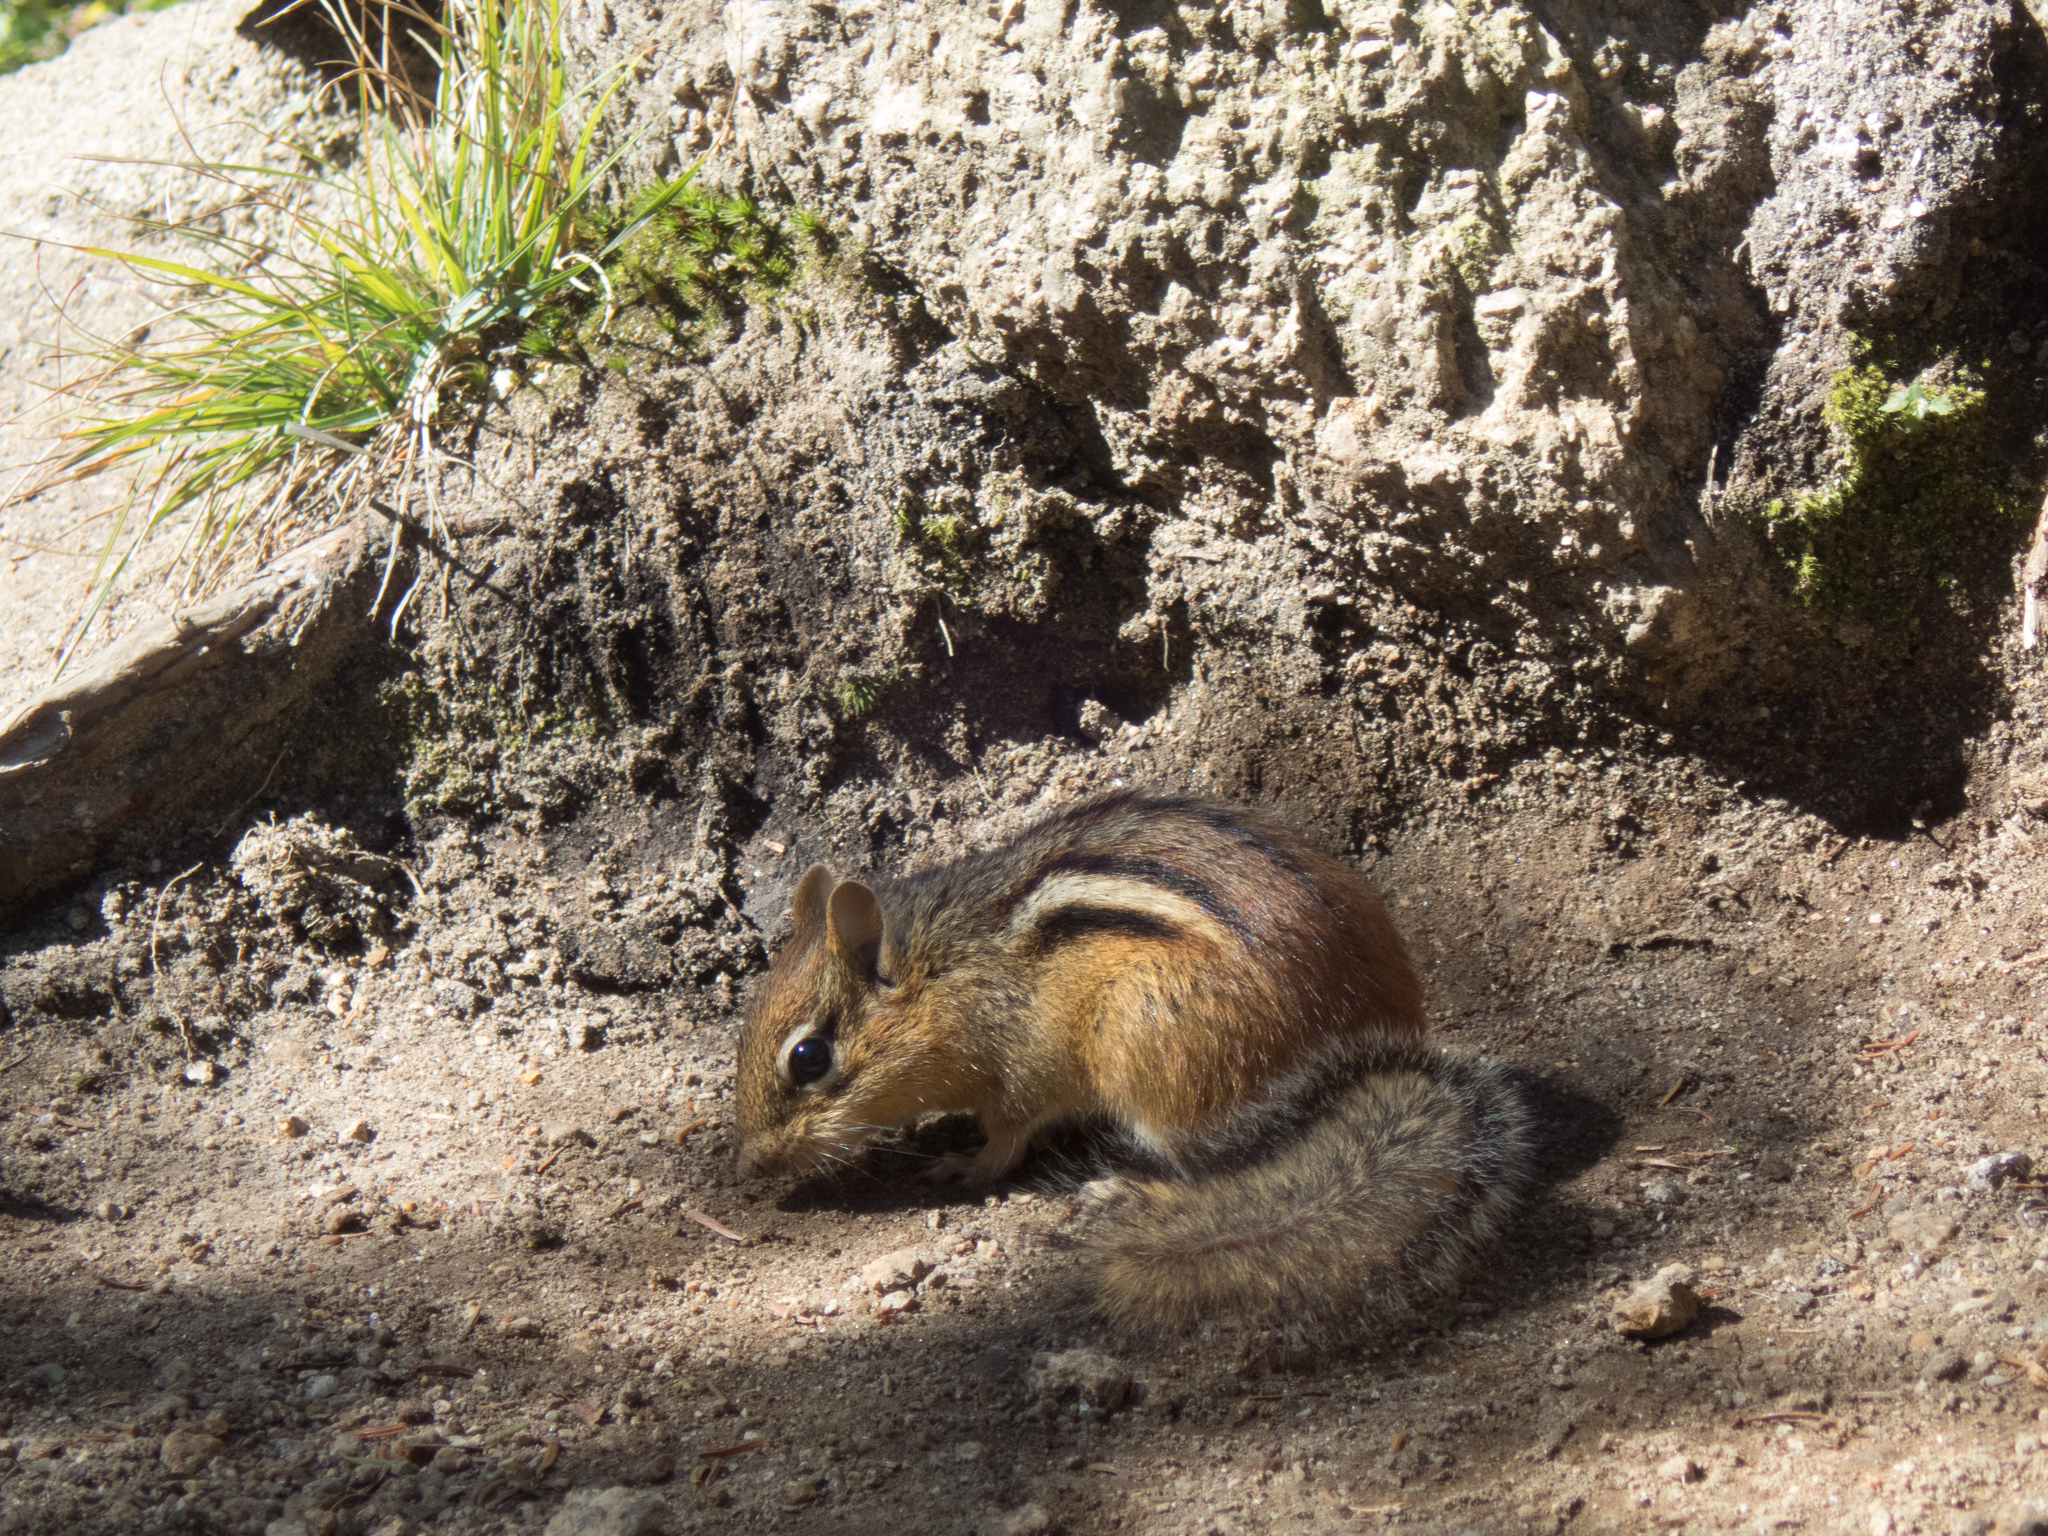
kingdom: Animalia
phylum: Chordata
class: Mammalia
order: Rodentia
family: Sciuridae
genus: Tamias
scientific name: Tamias striatus
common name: Eastern chipmunk
